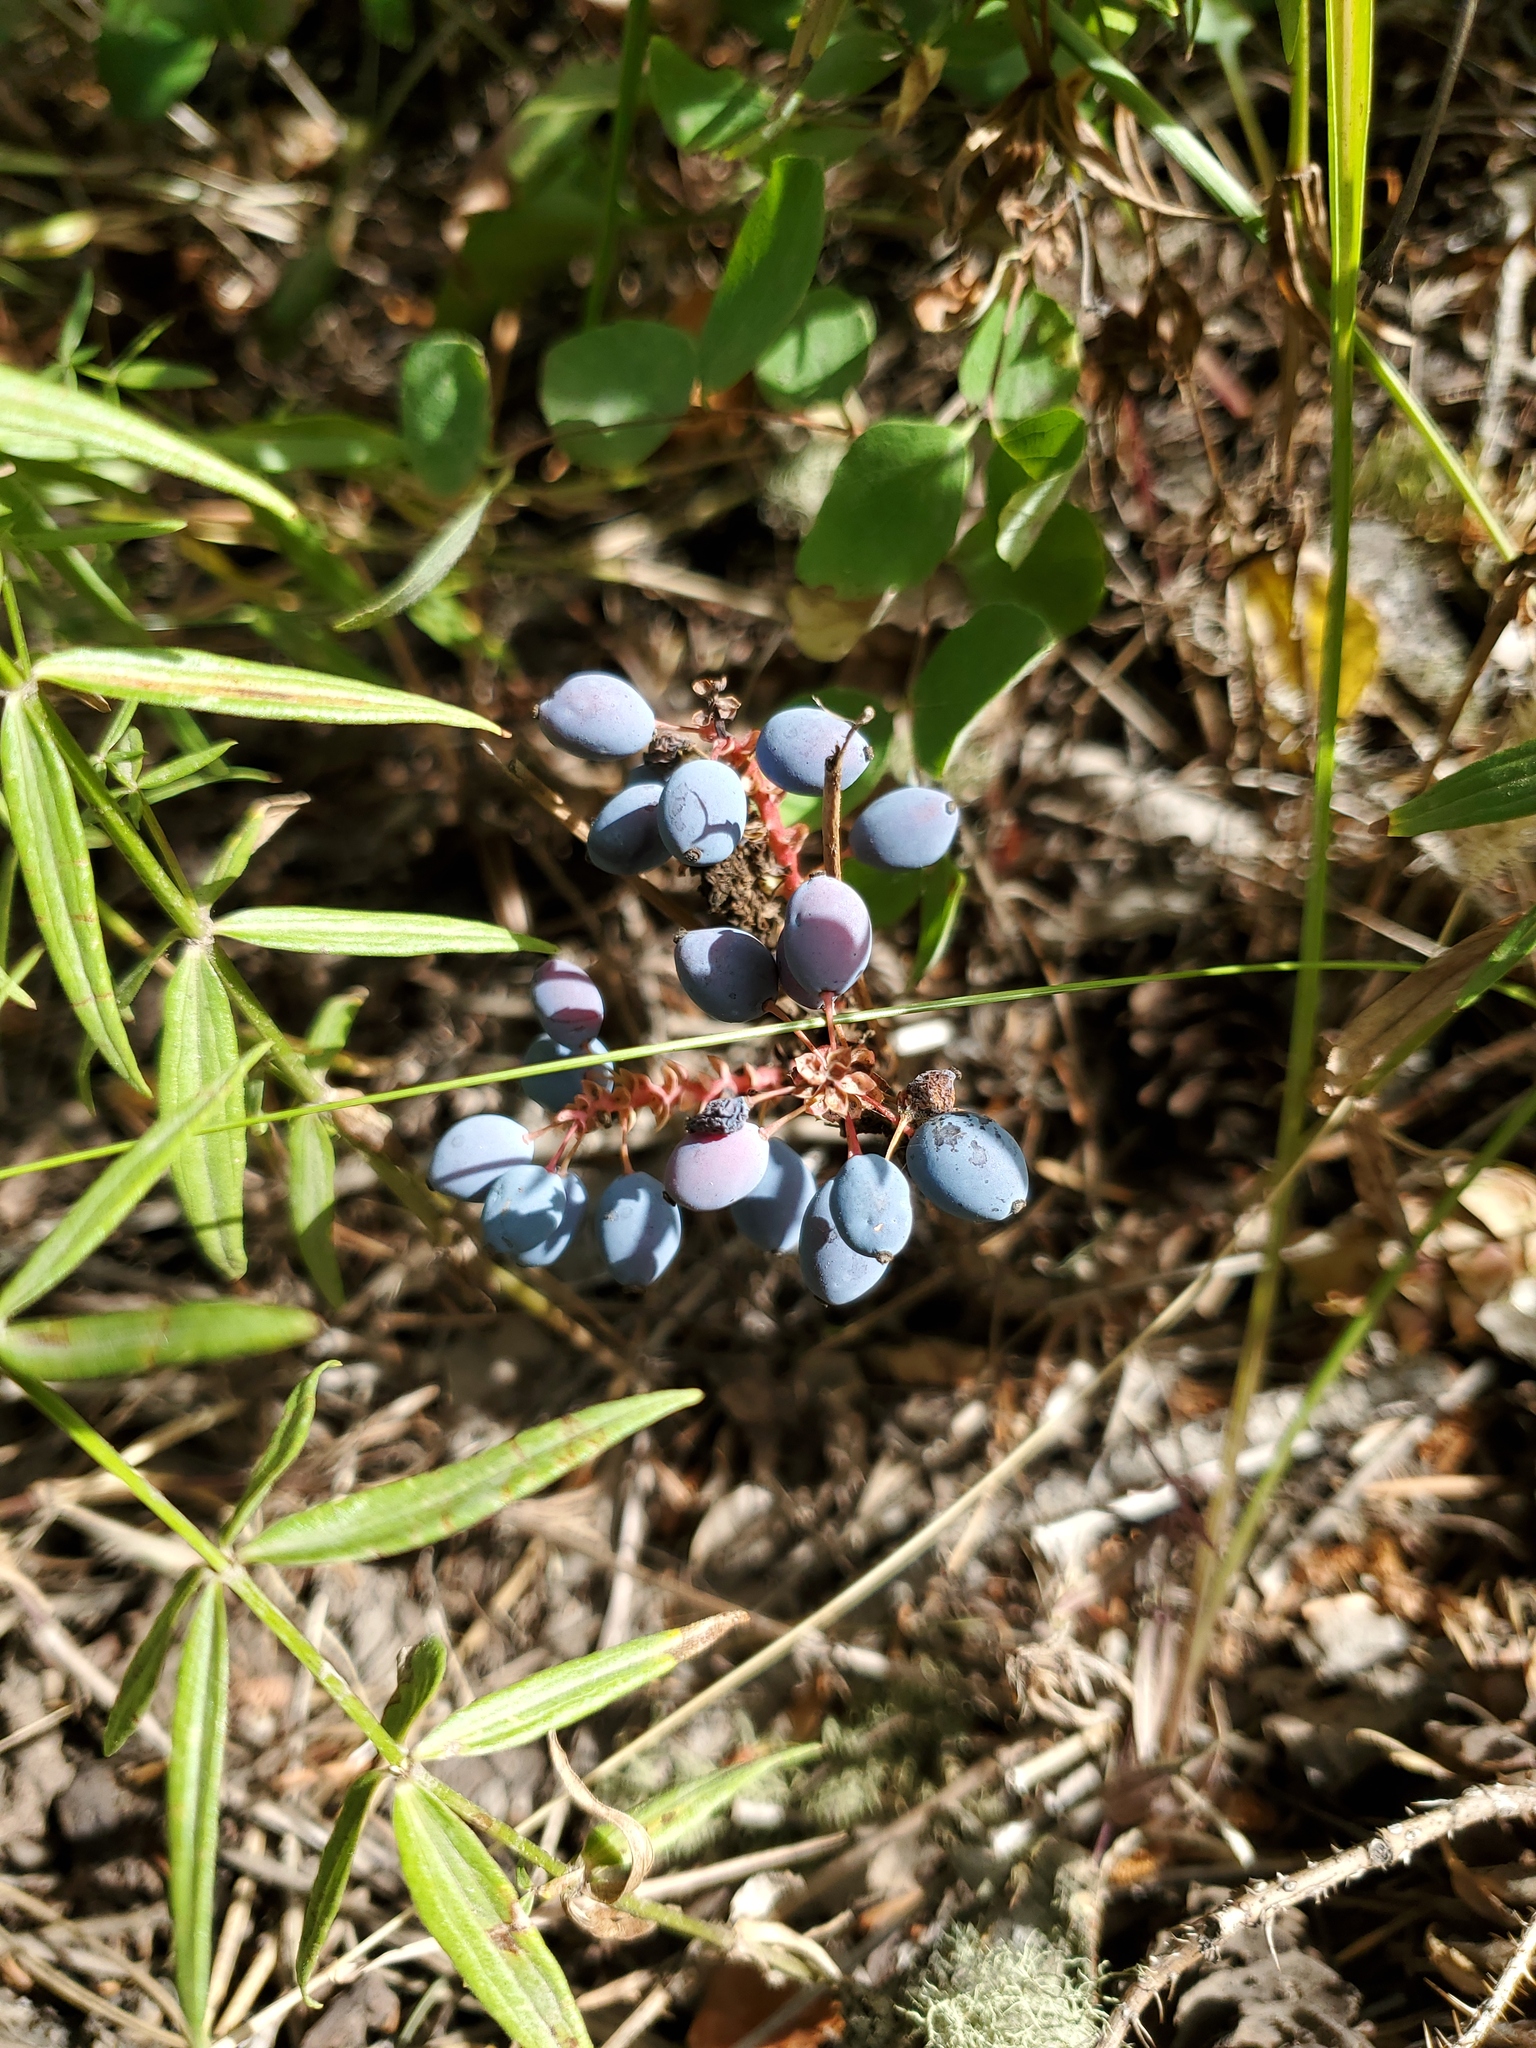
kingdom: Plantae
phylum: Tracheophyta
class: Magnoliopsida
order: Ranunculales
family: Berberidaceae
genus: Mahonia
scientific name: Mahonia repens
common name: Creeping oregon-grape
